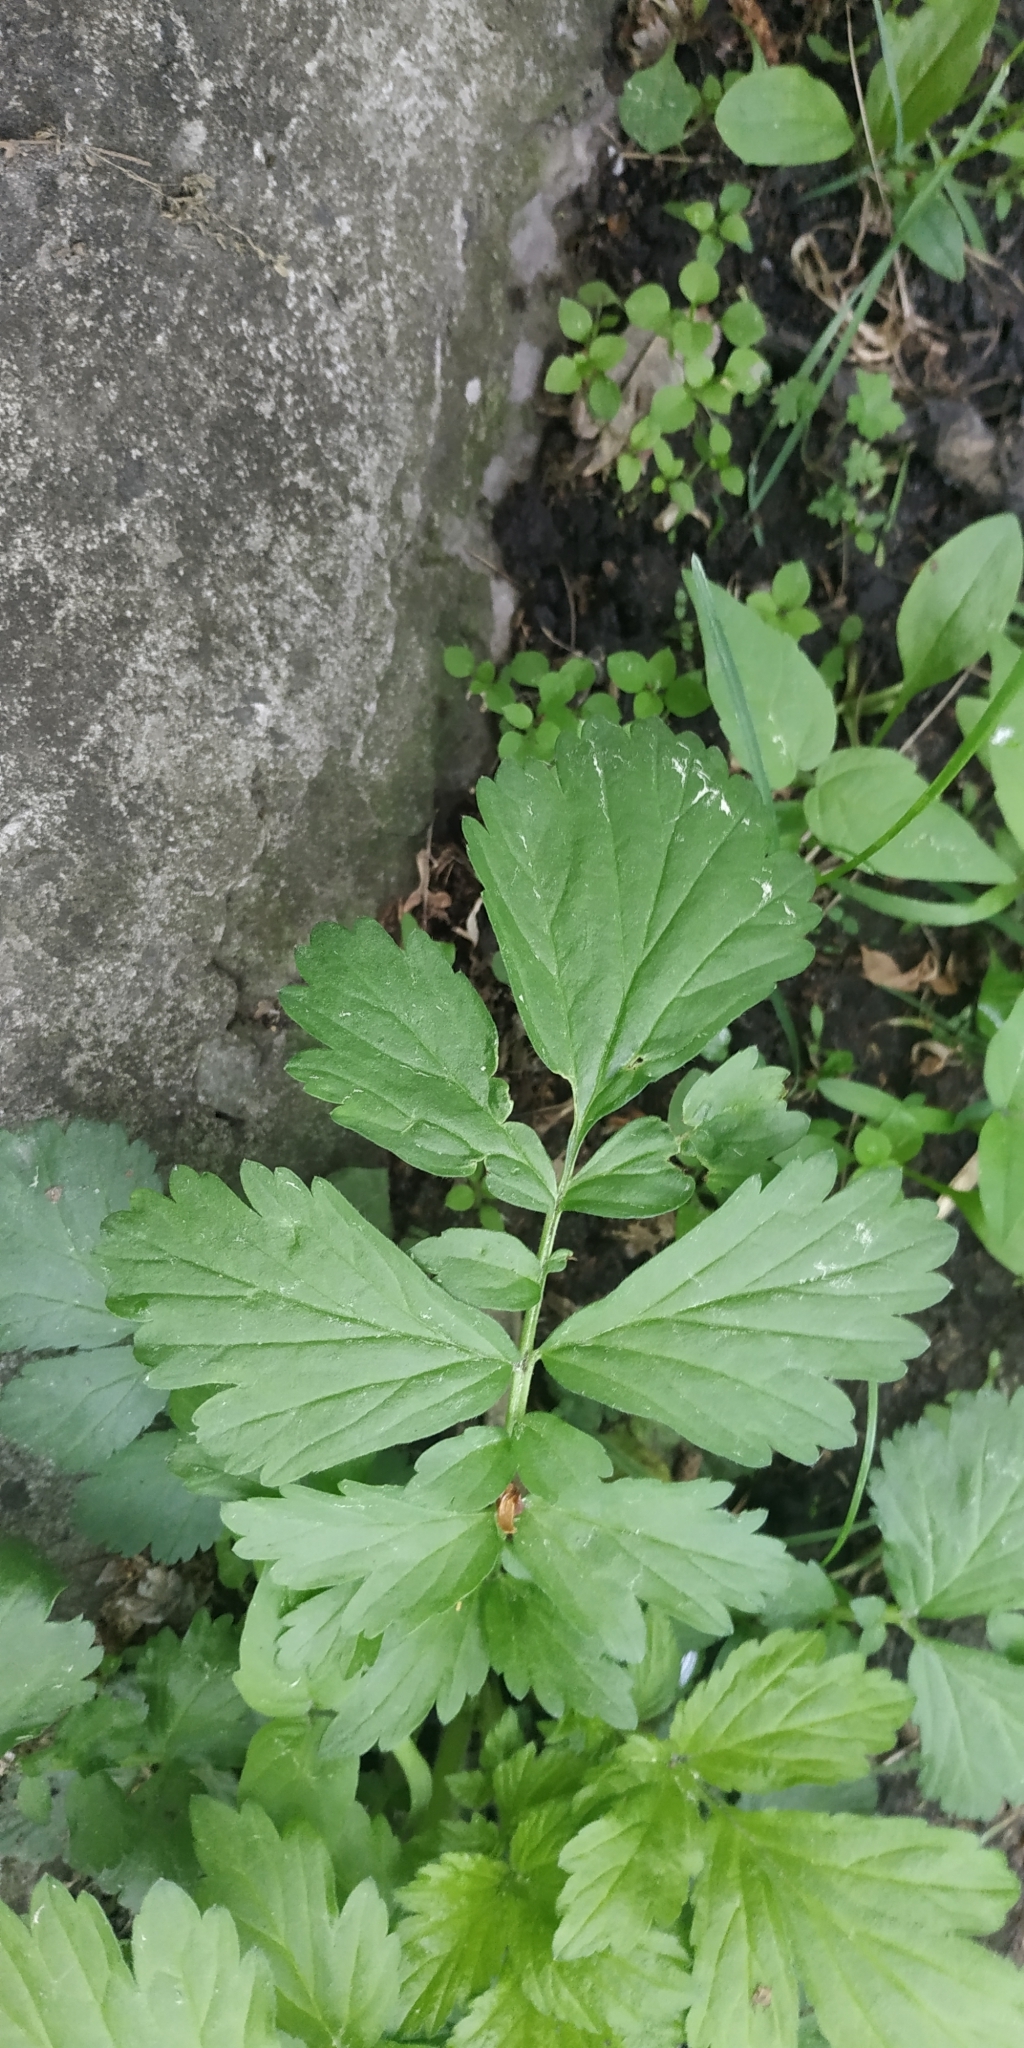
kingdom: Plantae
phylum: Tracheophyta
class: Magnoliopsida
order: Rosales
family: Rosaceae
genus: Geum
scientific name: Geum aleppicum
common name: Yellow avens
